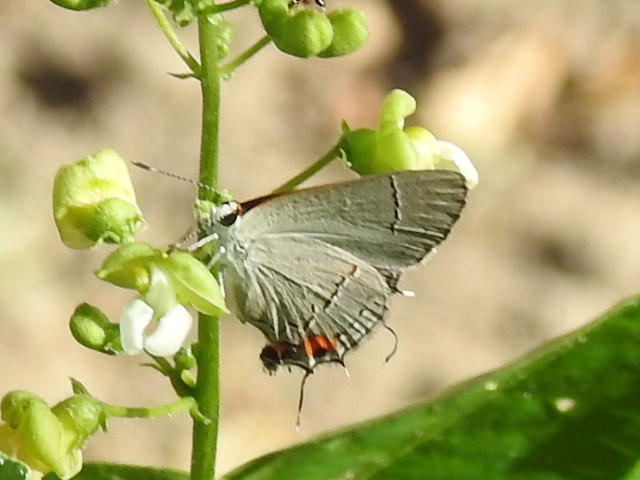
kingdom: Animalia
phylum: Arthropoda
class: Insecta
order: Lepidoptera
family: Lycaenidae
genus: Strymon
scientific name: Strymon melinus
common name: Gray hairstreak
